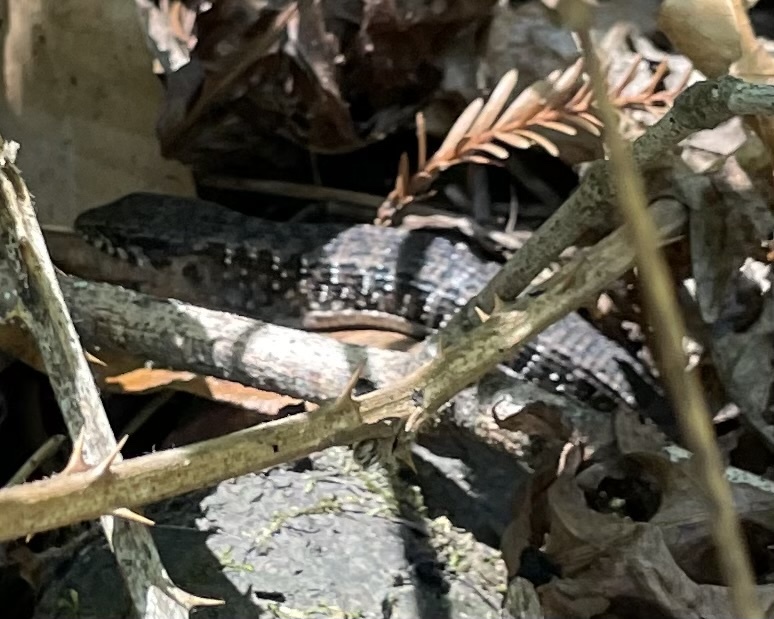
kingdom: Animalia
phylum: Chordata
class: Squamata
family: Anguidae
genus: Elgaria
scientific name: Elgaria coerulea
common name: Northern alligator lizard
